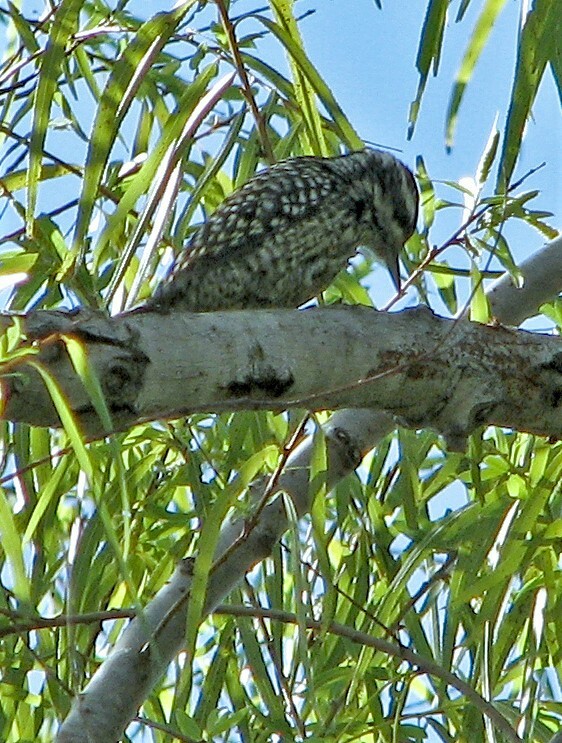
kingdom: Animalia
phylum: Chordata
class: Aves
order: Piciformes
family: Picidae
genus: Veniliornis
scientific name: Veniliornis mixtus
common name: Checkered woodpecker
